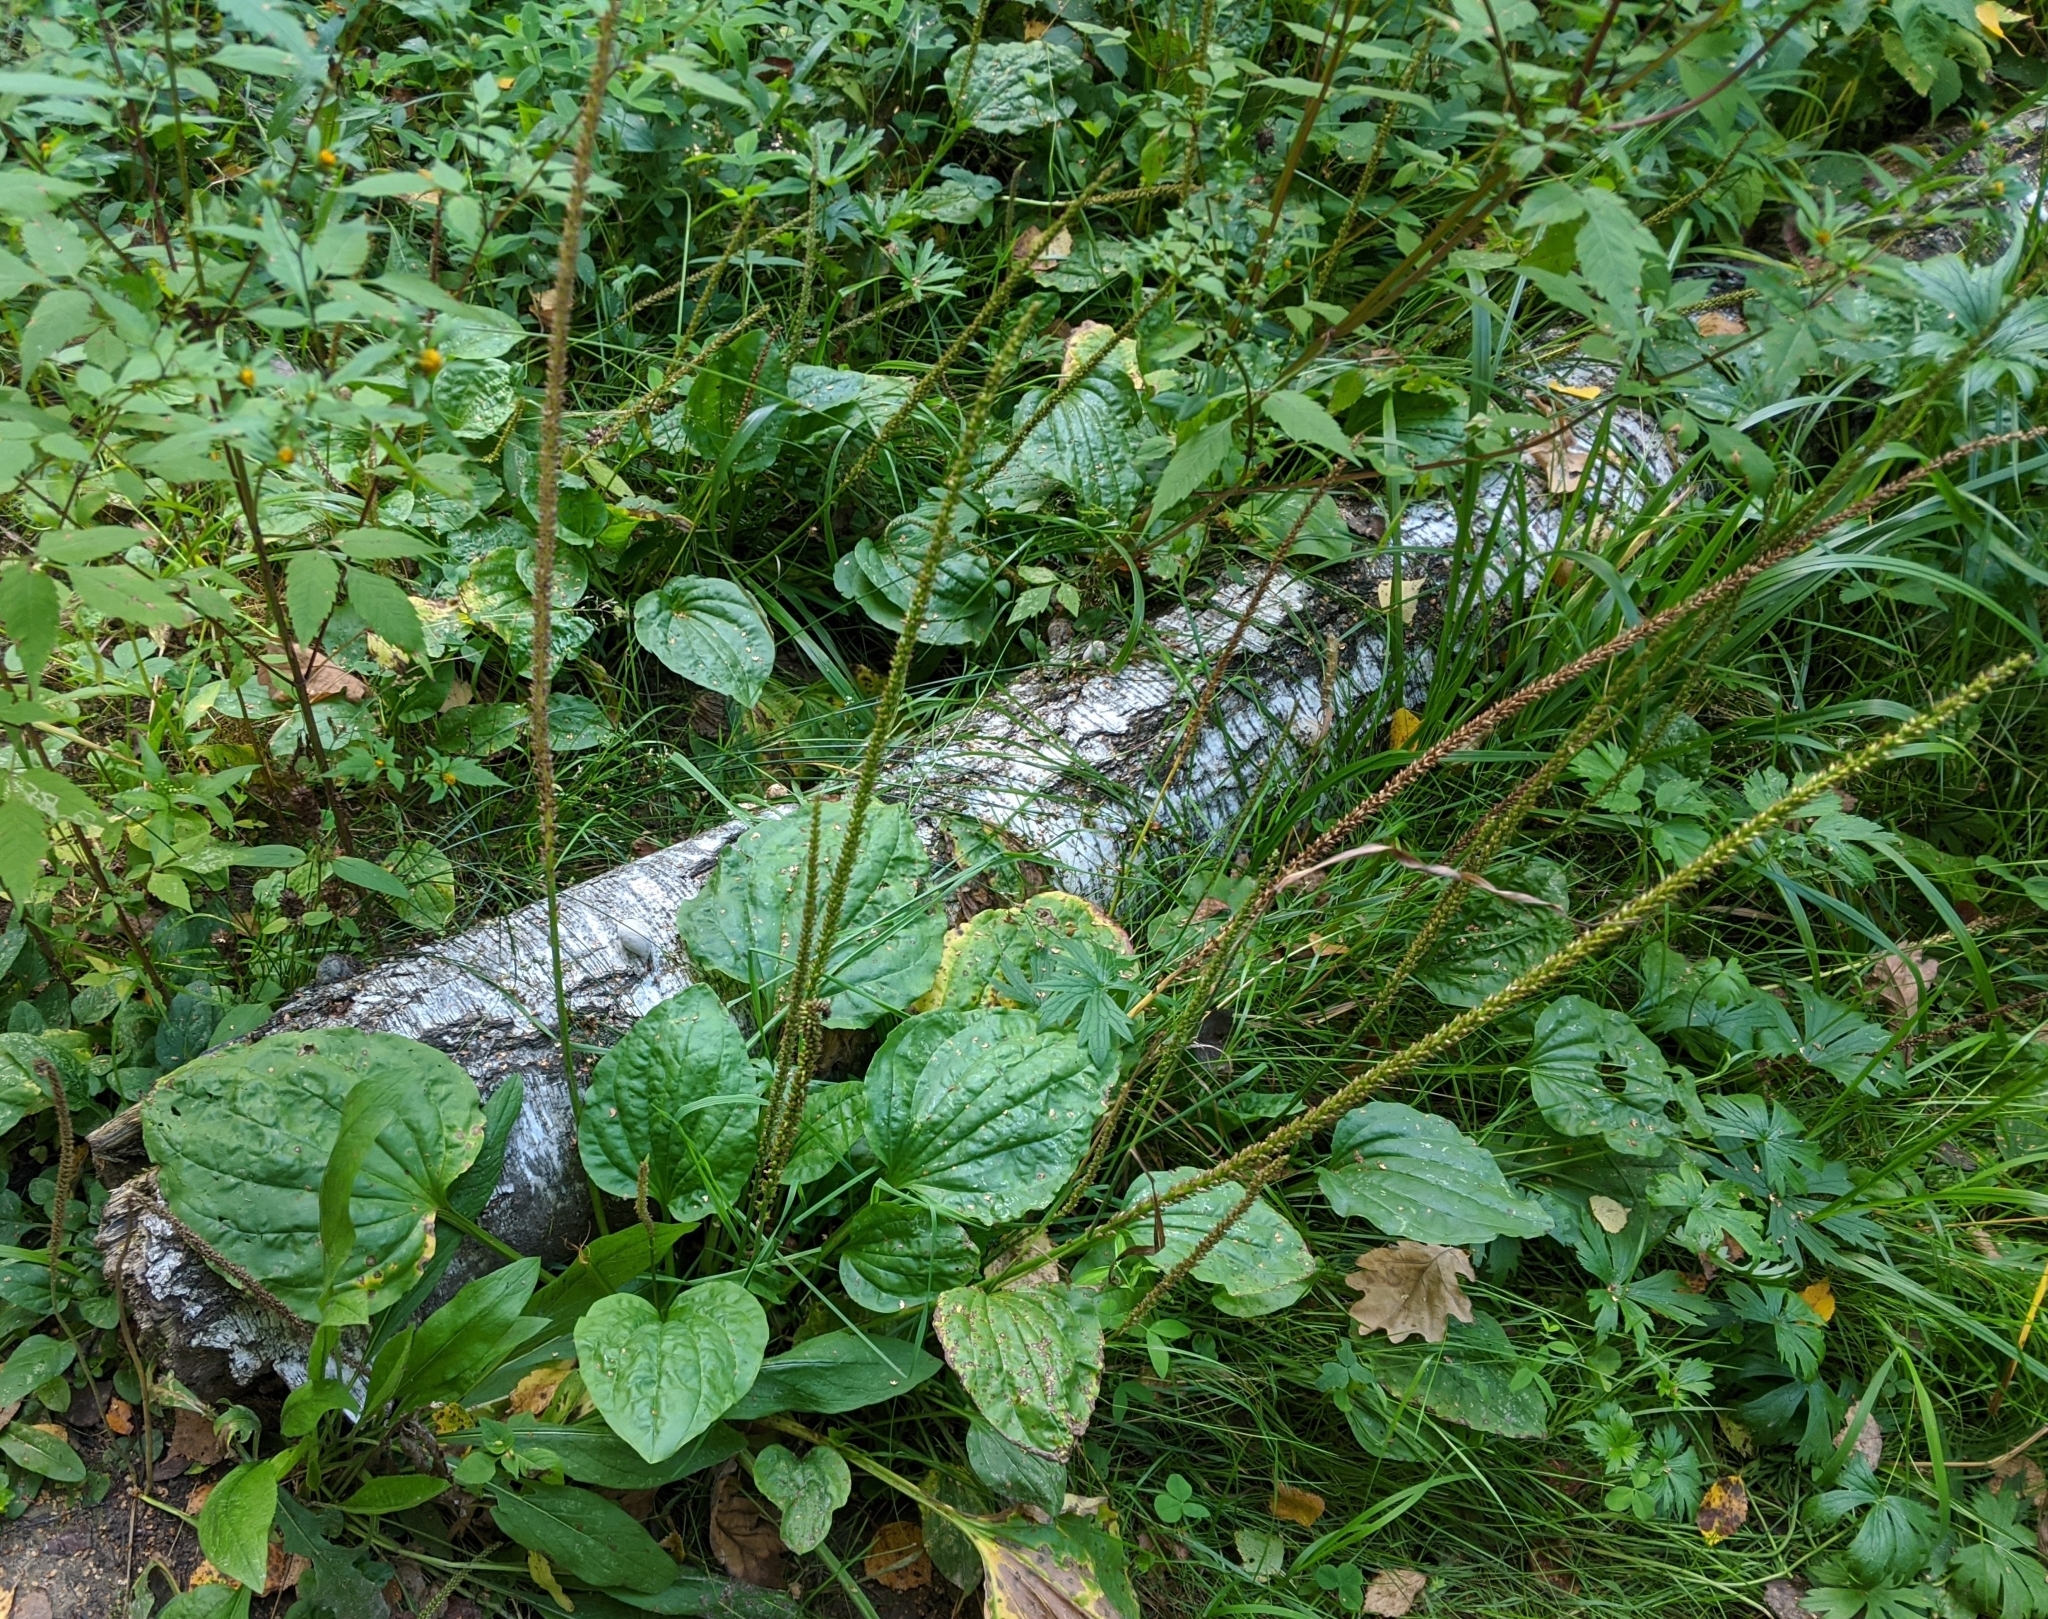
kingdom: Plantae
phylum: Tracheophyta
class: Magnoliopsida
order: Lamiales
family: Plantaginaceae
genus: Plantago
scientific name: Plantago major
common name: Common plantain
